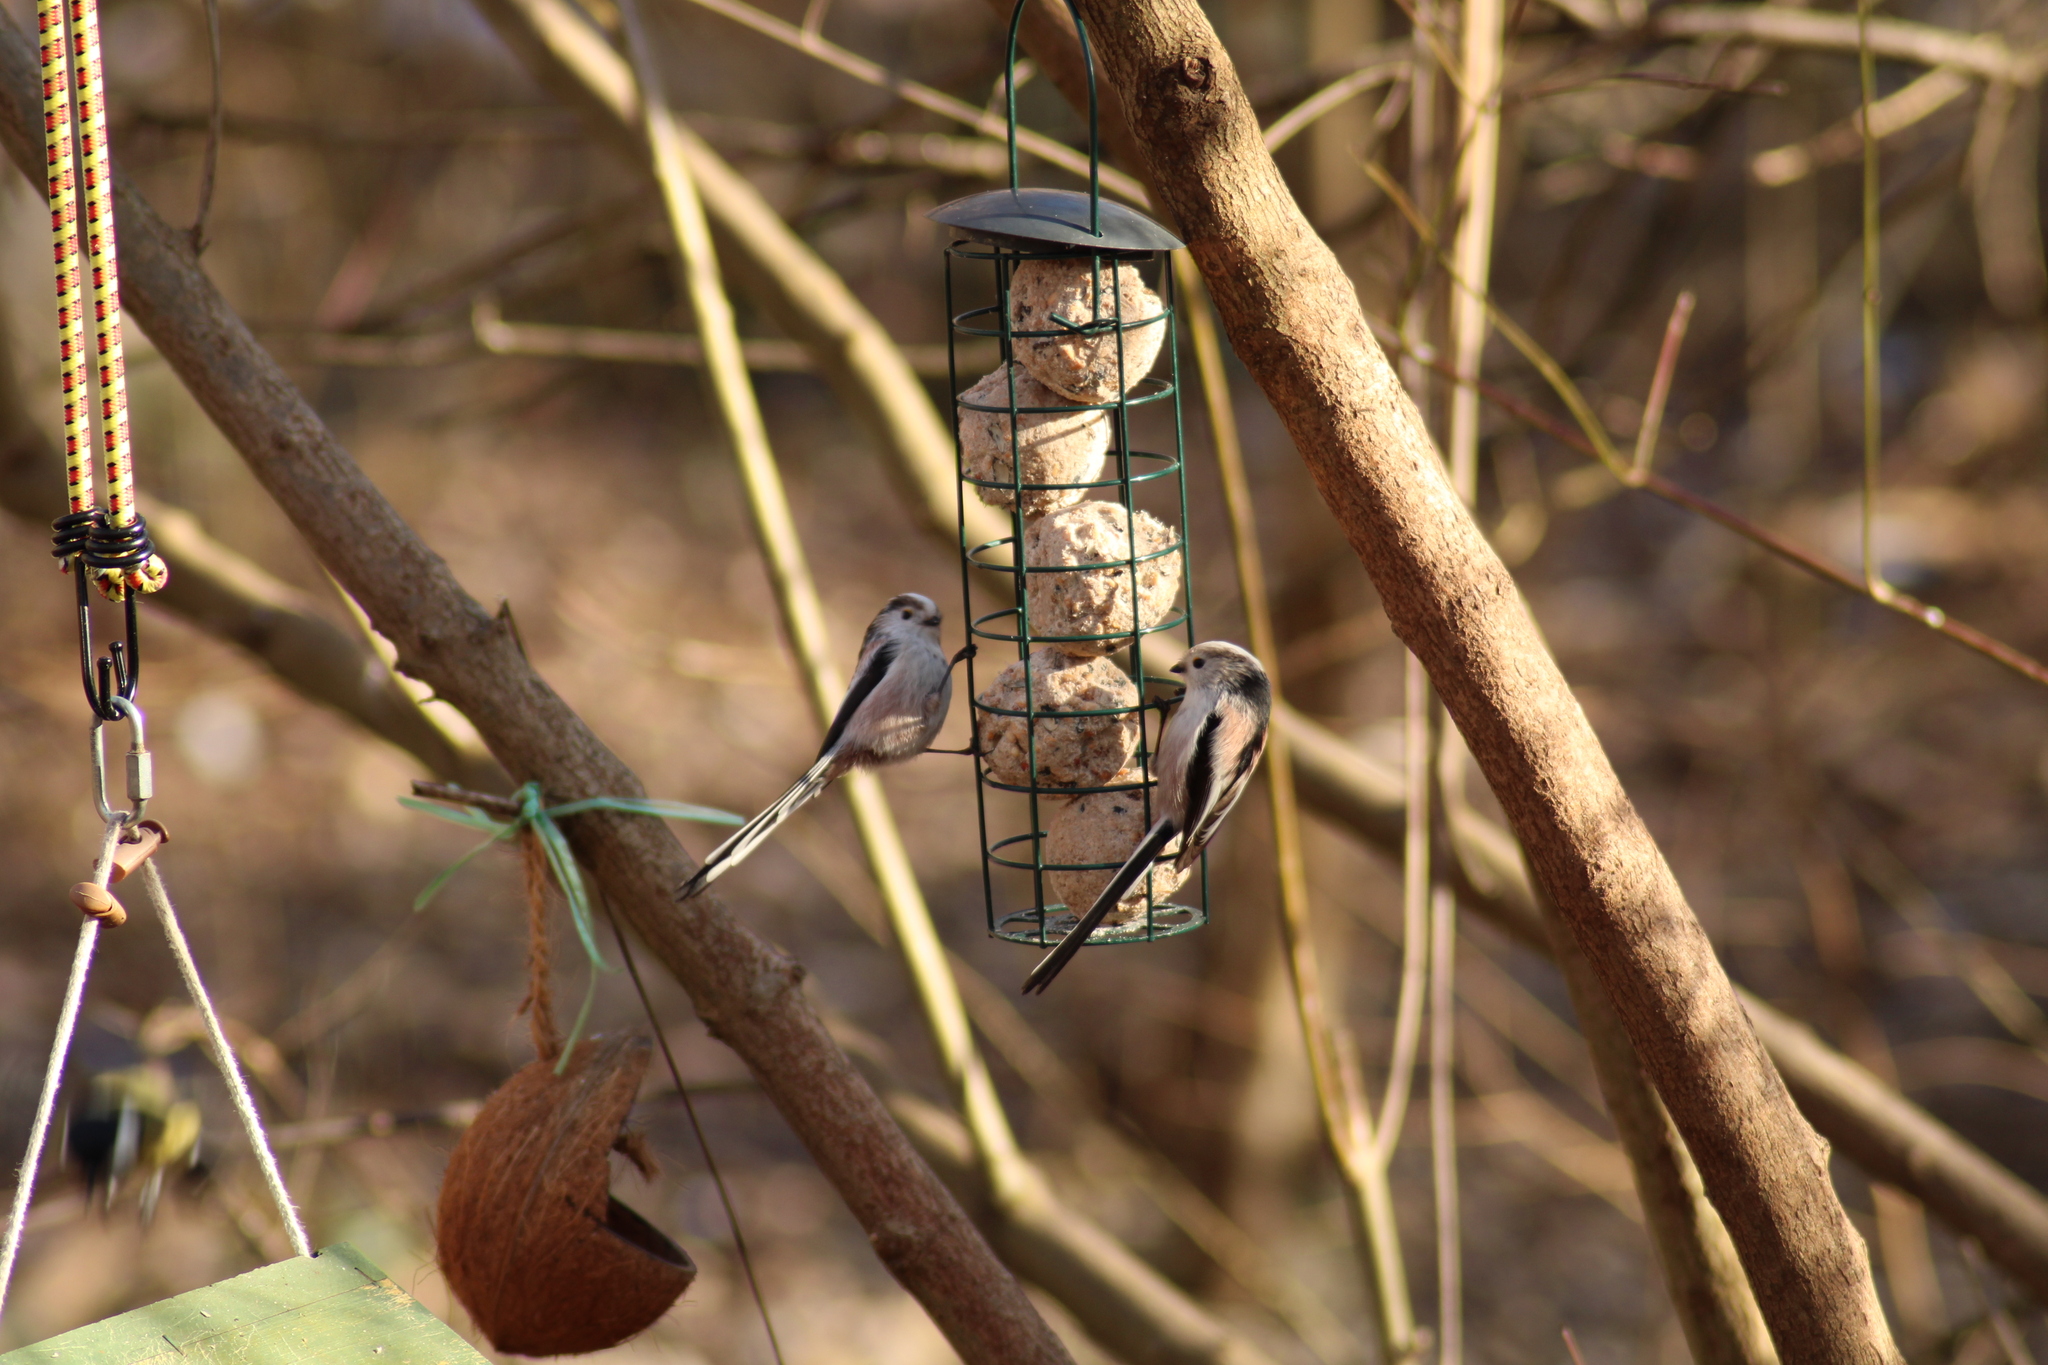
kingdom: Animalia
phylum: Chordata
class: Aves
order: Passeriformes
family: Aegithalidae
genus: Aegithalos
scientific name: Aegithalos caudatus
